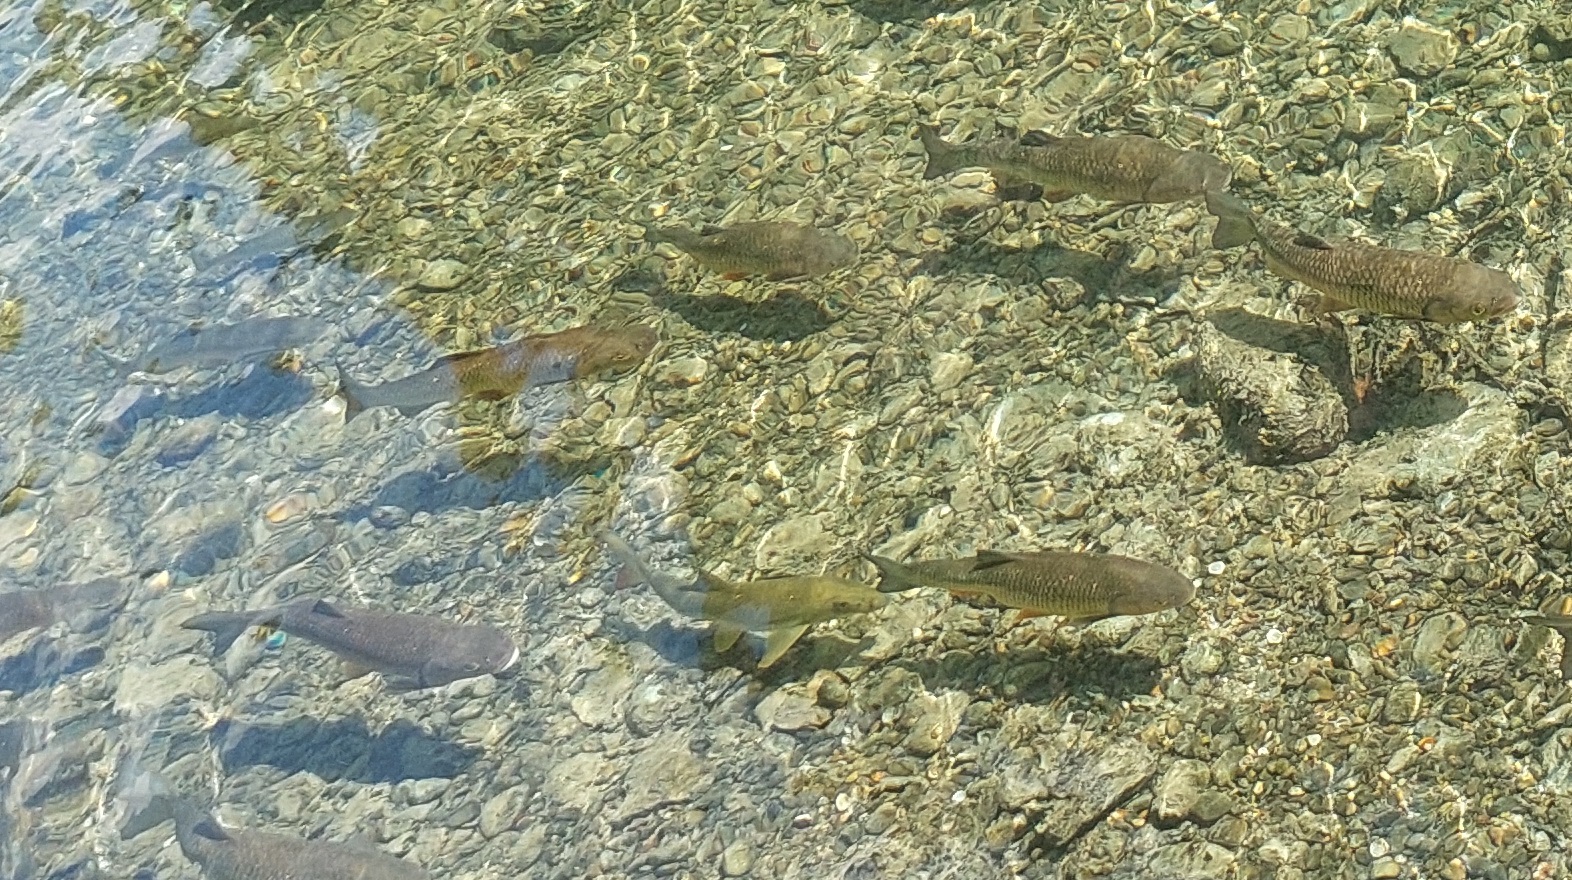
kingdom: Animalia
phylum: Chordata
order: Cypriniformes
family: Cyprinidae
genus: Barbus
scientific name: Barbus barbus
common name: Barbel
